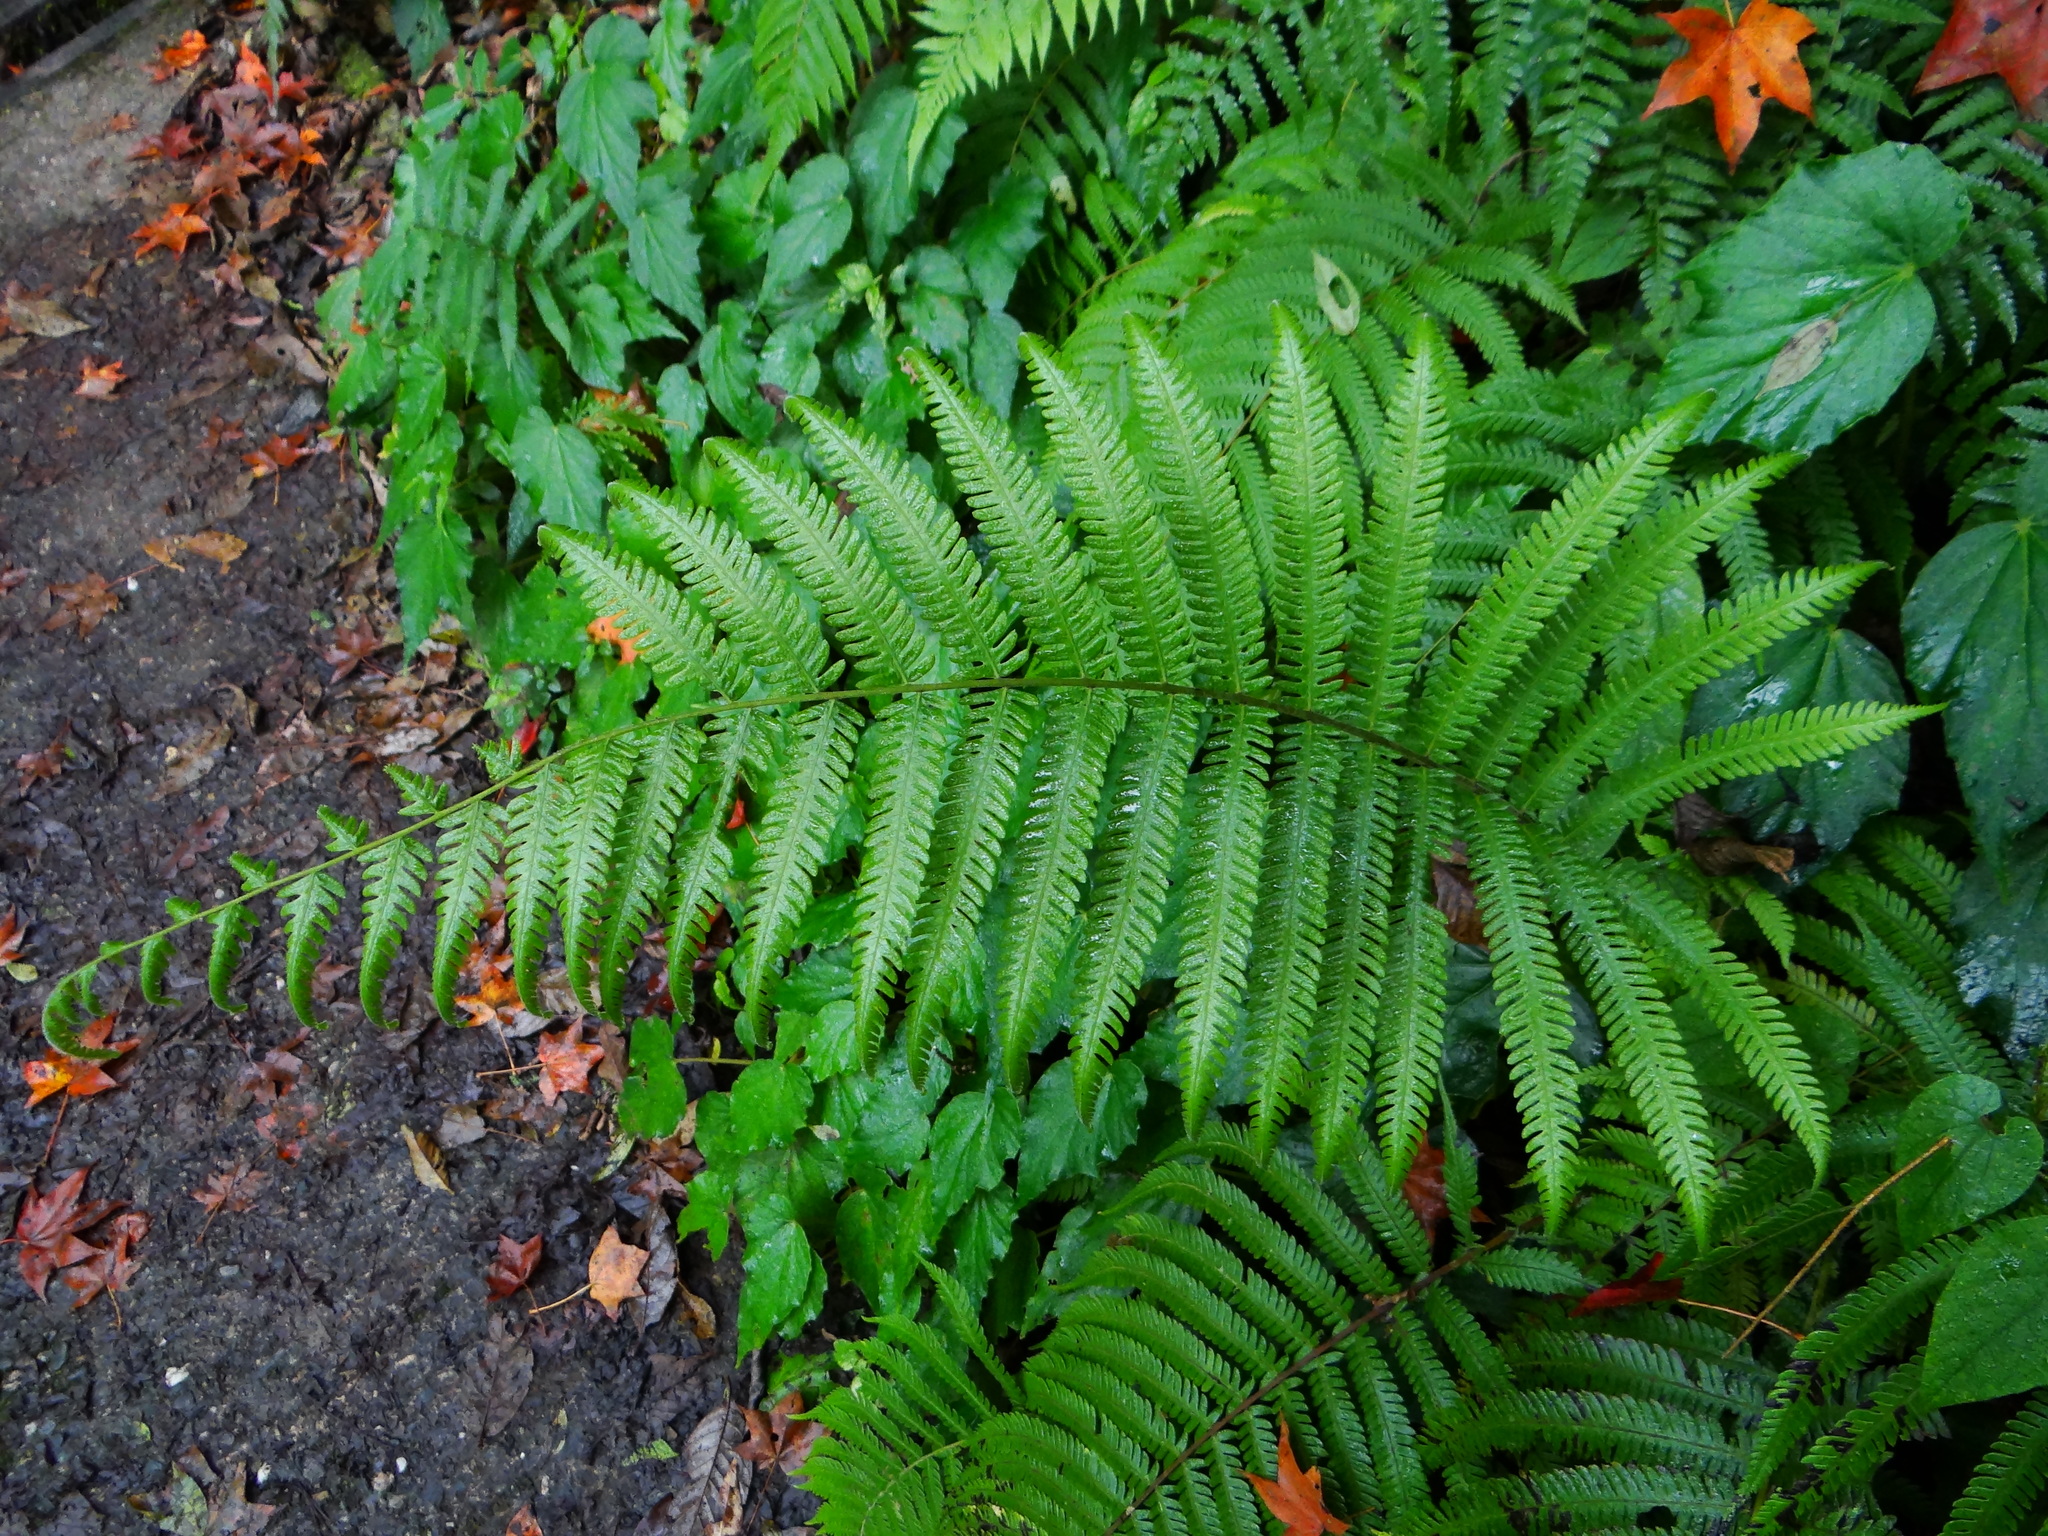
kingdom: Plantae
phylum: Tracheophyta
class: Polypodiopsida
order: Polypodiales
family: Thelypteridaceae
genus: Pseudocyclosorus
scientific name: Pseudocyclosorus esquirolii
